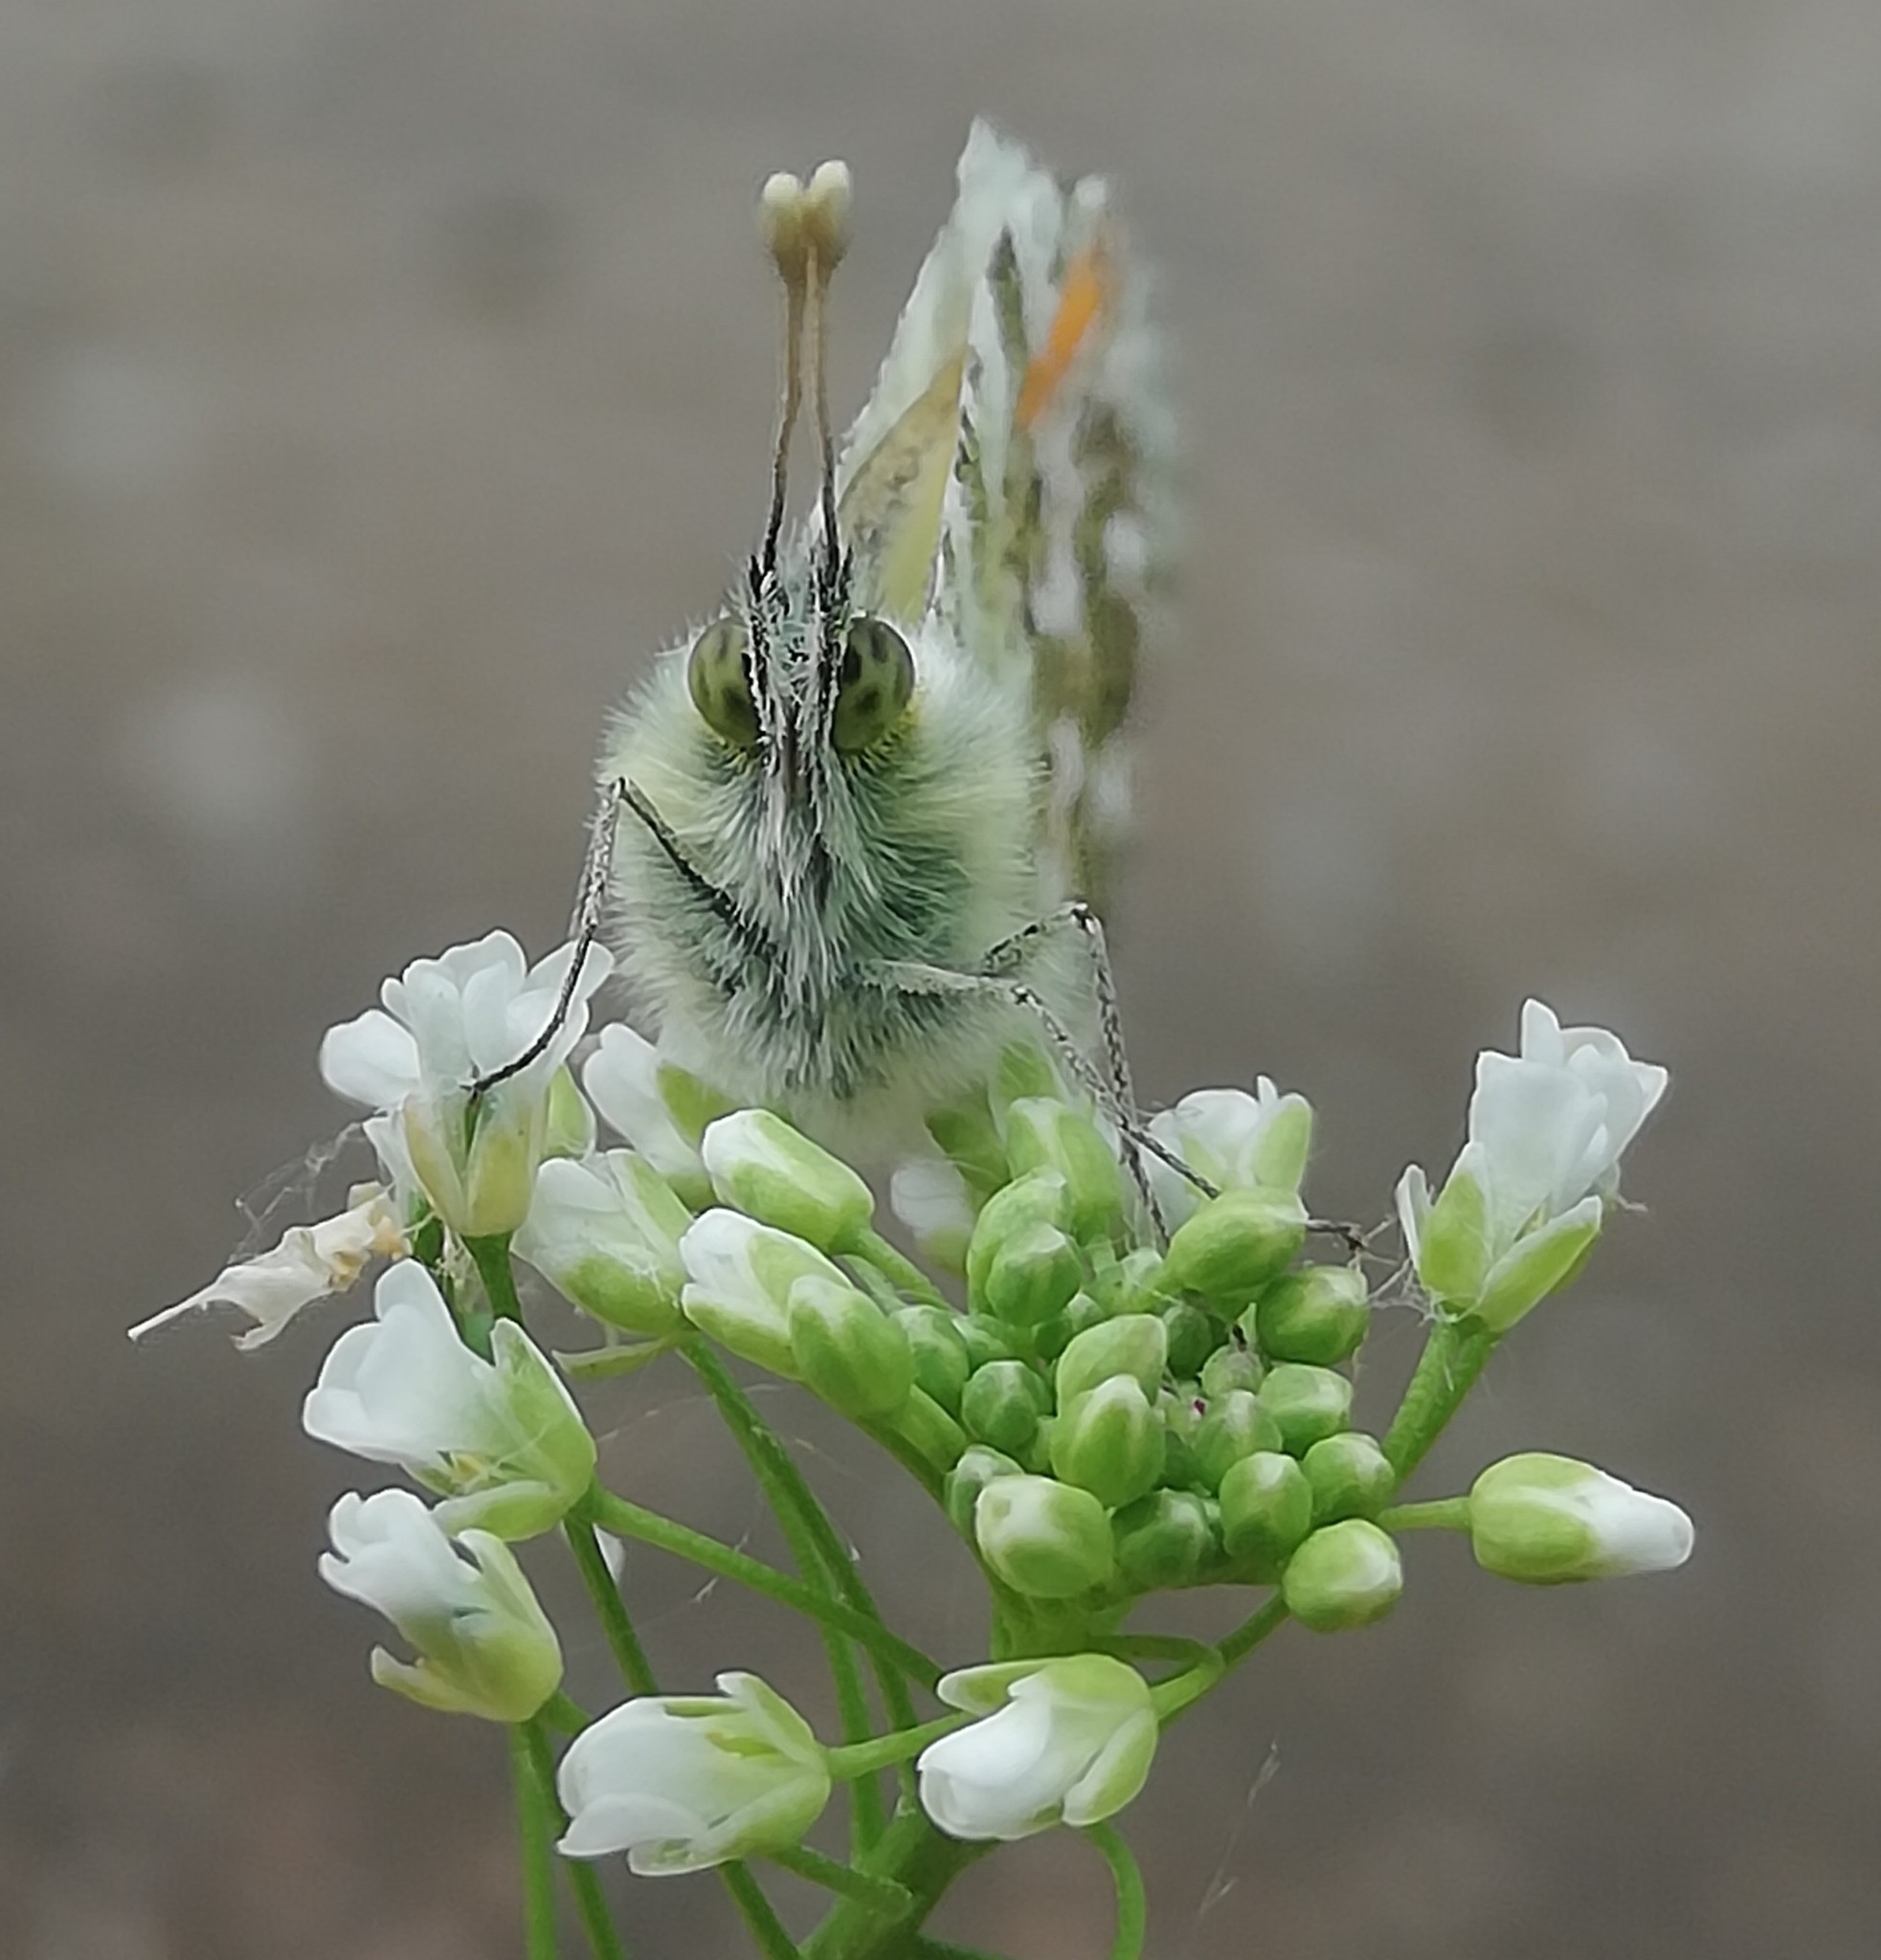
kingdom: Animalia
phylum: Arthropoda
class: Insecta
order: Lepidoptera
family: Pieridae
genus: Anthocharis
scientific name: Anthocharis cardamines
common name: Orange-tip
